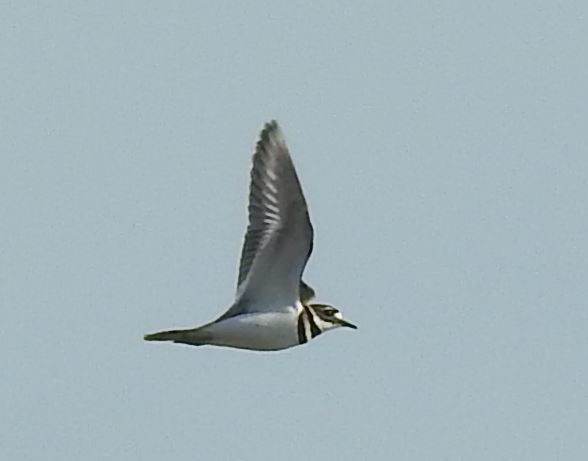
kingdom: Animalia
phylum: Chordata
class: Aves
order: Charadriiformes
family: Charadriidae
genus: Charadrius
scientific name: Charadrius vociferus
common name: Killdeer
